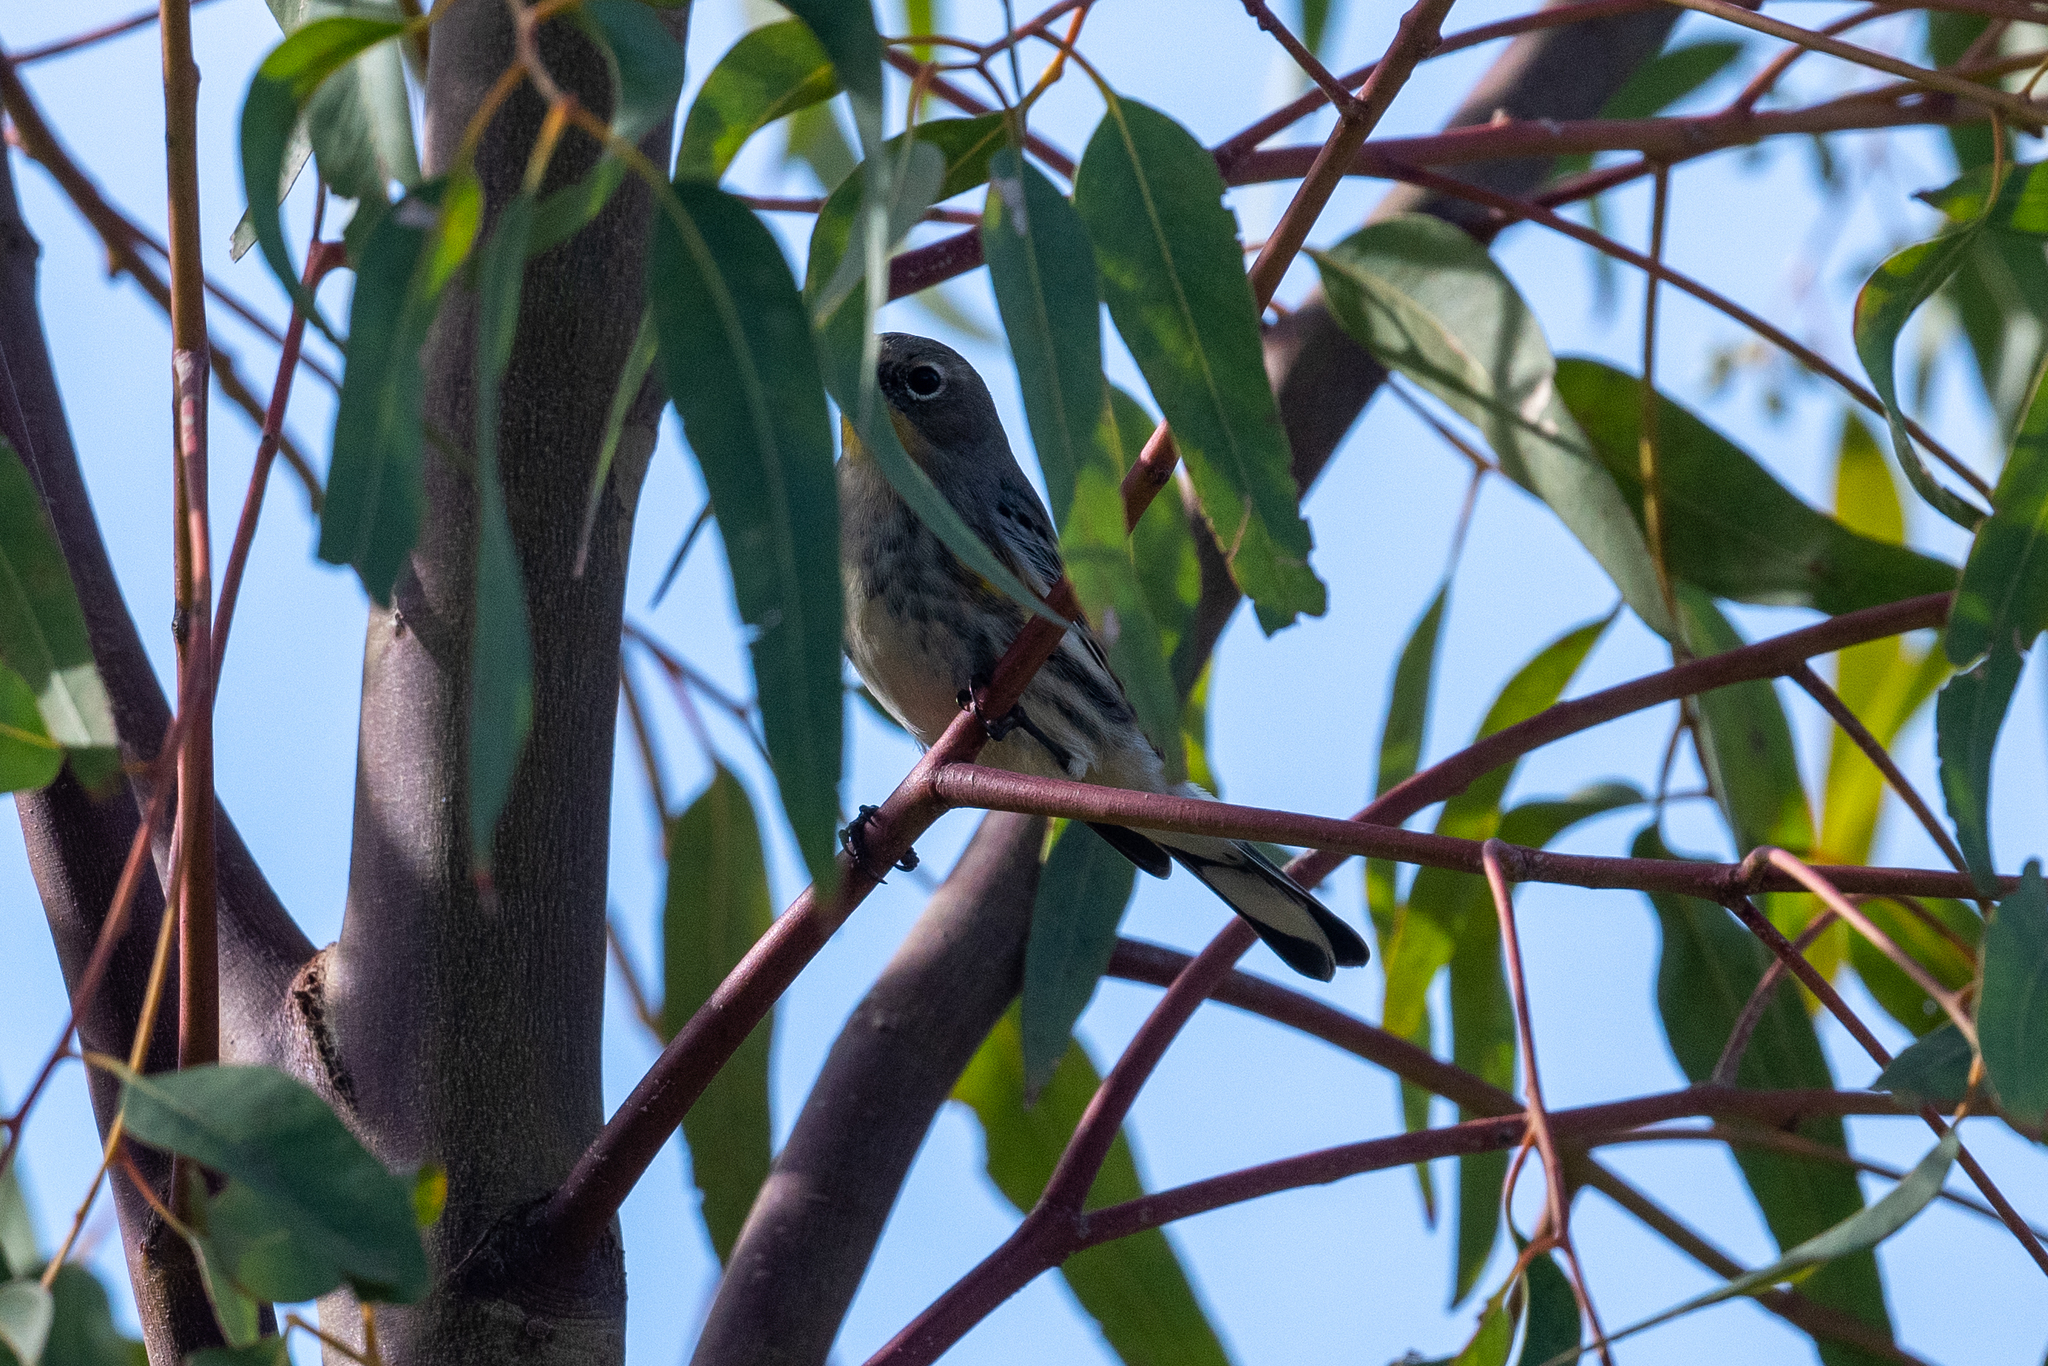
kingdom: Animalia
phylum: Chordata
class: Aves
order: Passeriformes
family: Parulidae
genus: Setophaga
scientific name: Setophaga coronata
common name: Myrtle warbler
